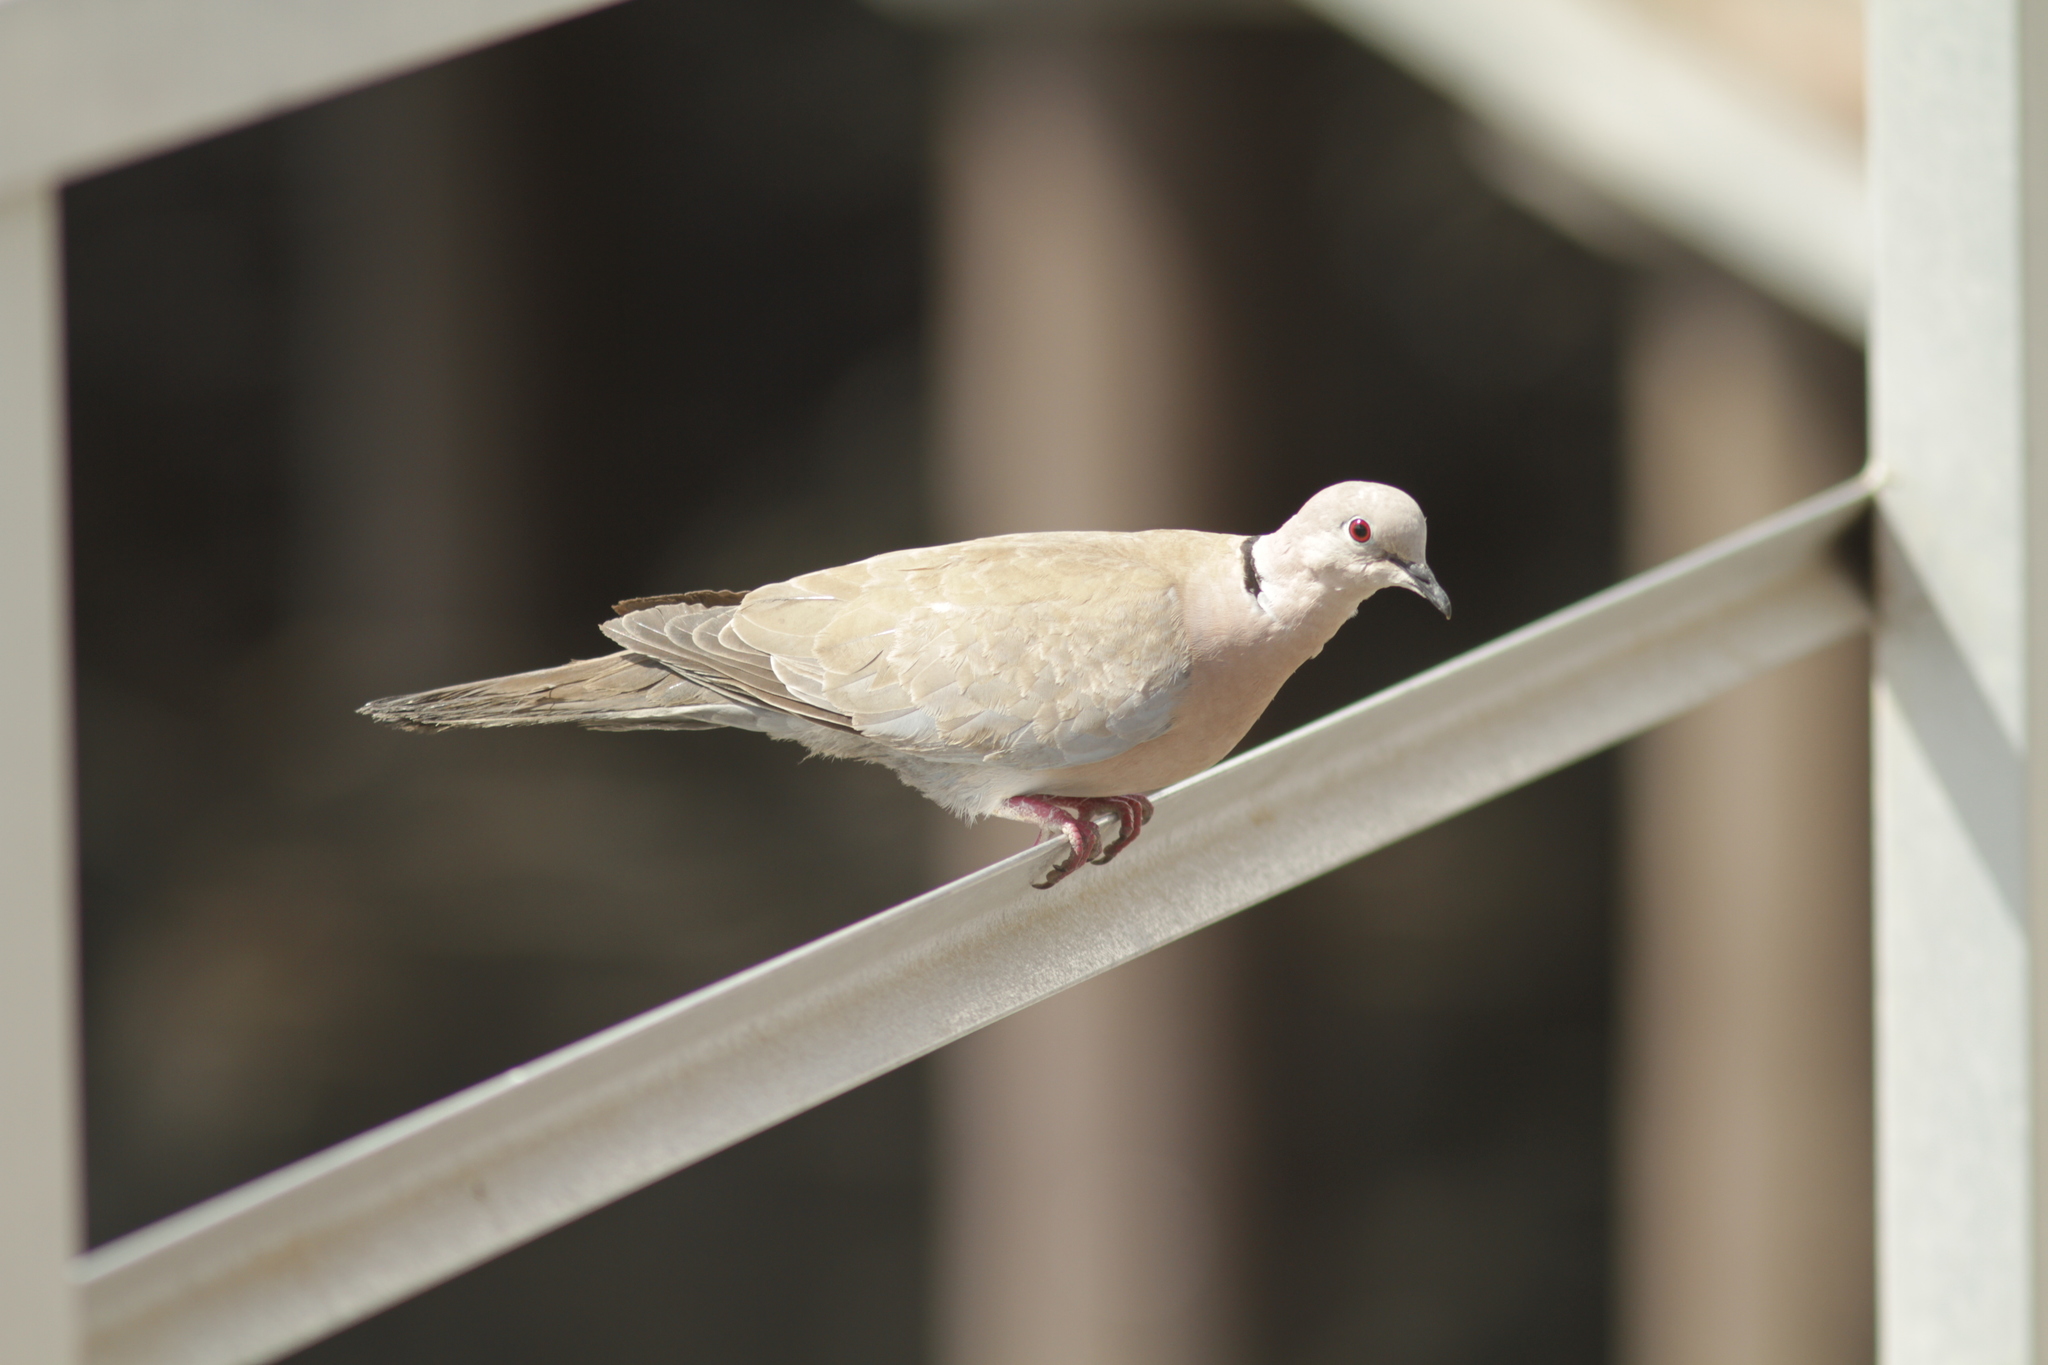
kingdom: Animalia
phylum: Chordata
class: Aves
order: Columbiformes
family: Columbidae
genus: Streptopelia
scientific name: Streptopelia decaocto
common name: Eurasian collared dove
